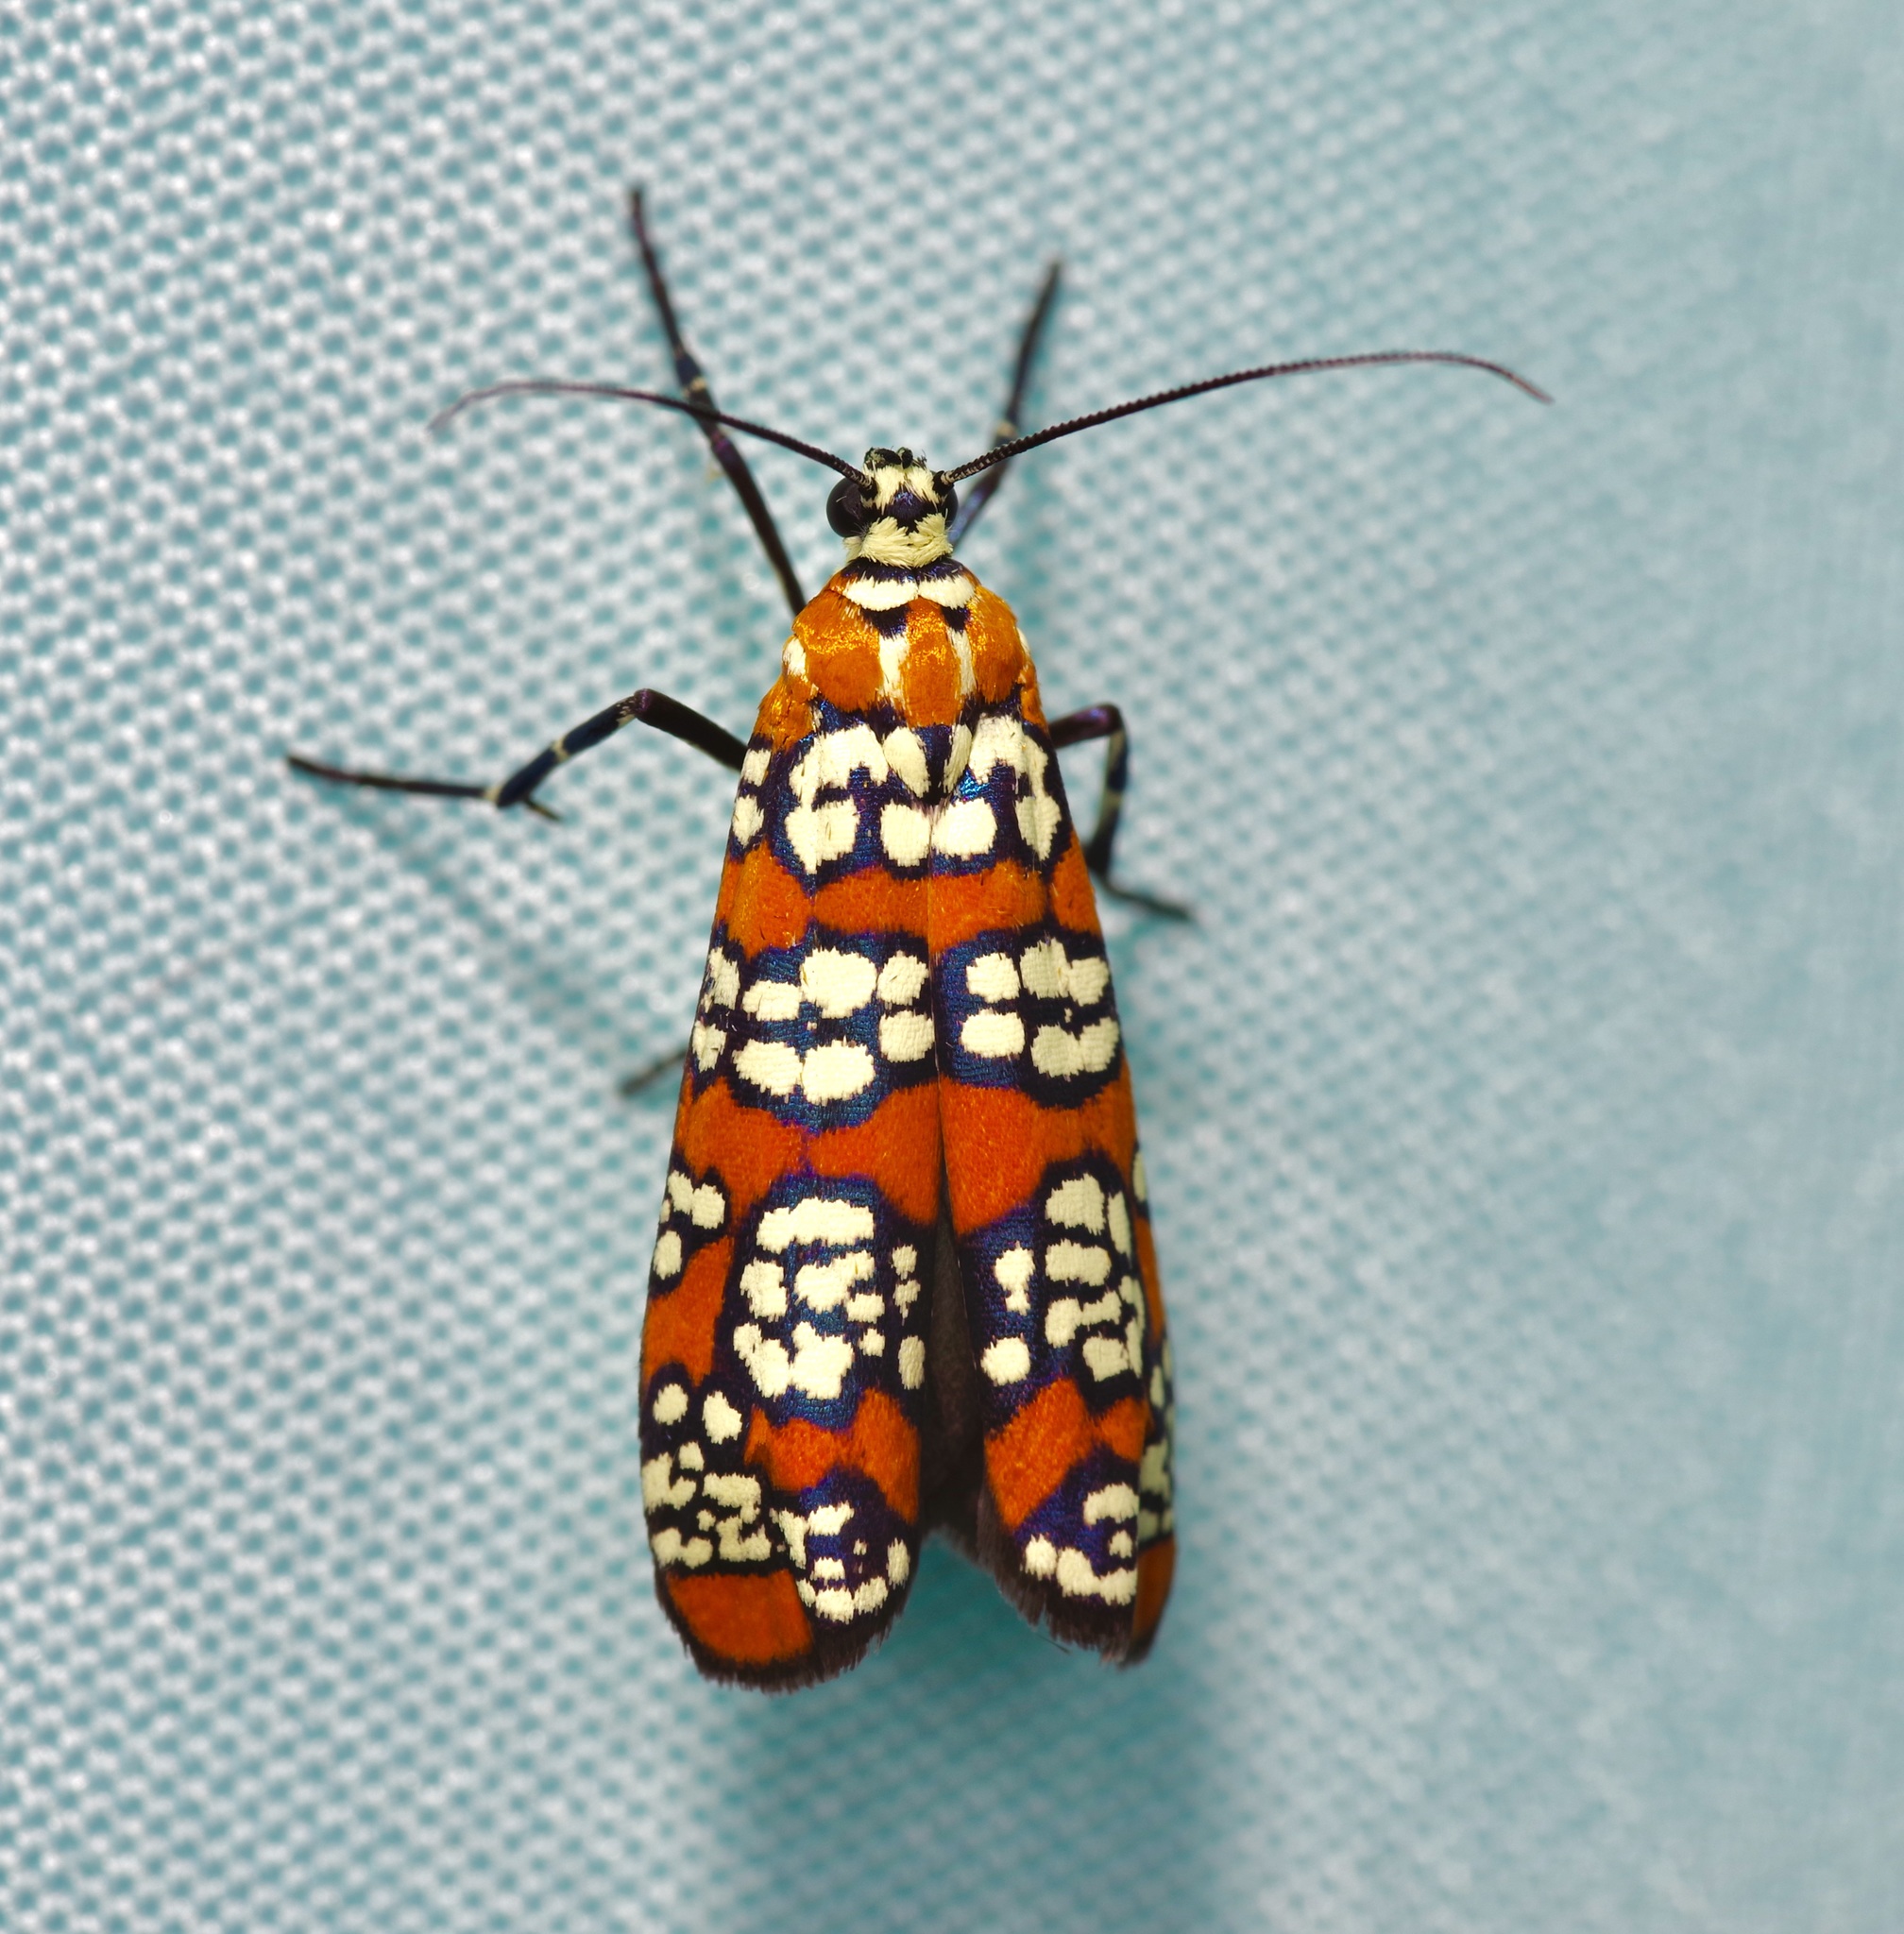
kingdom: Animalia
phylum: Arthropoda
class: Insecta
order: Lepidoptera
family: Attevidae
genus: Atteva
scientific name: Atteva punctella
